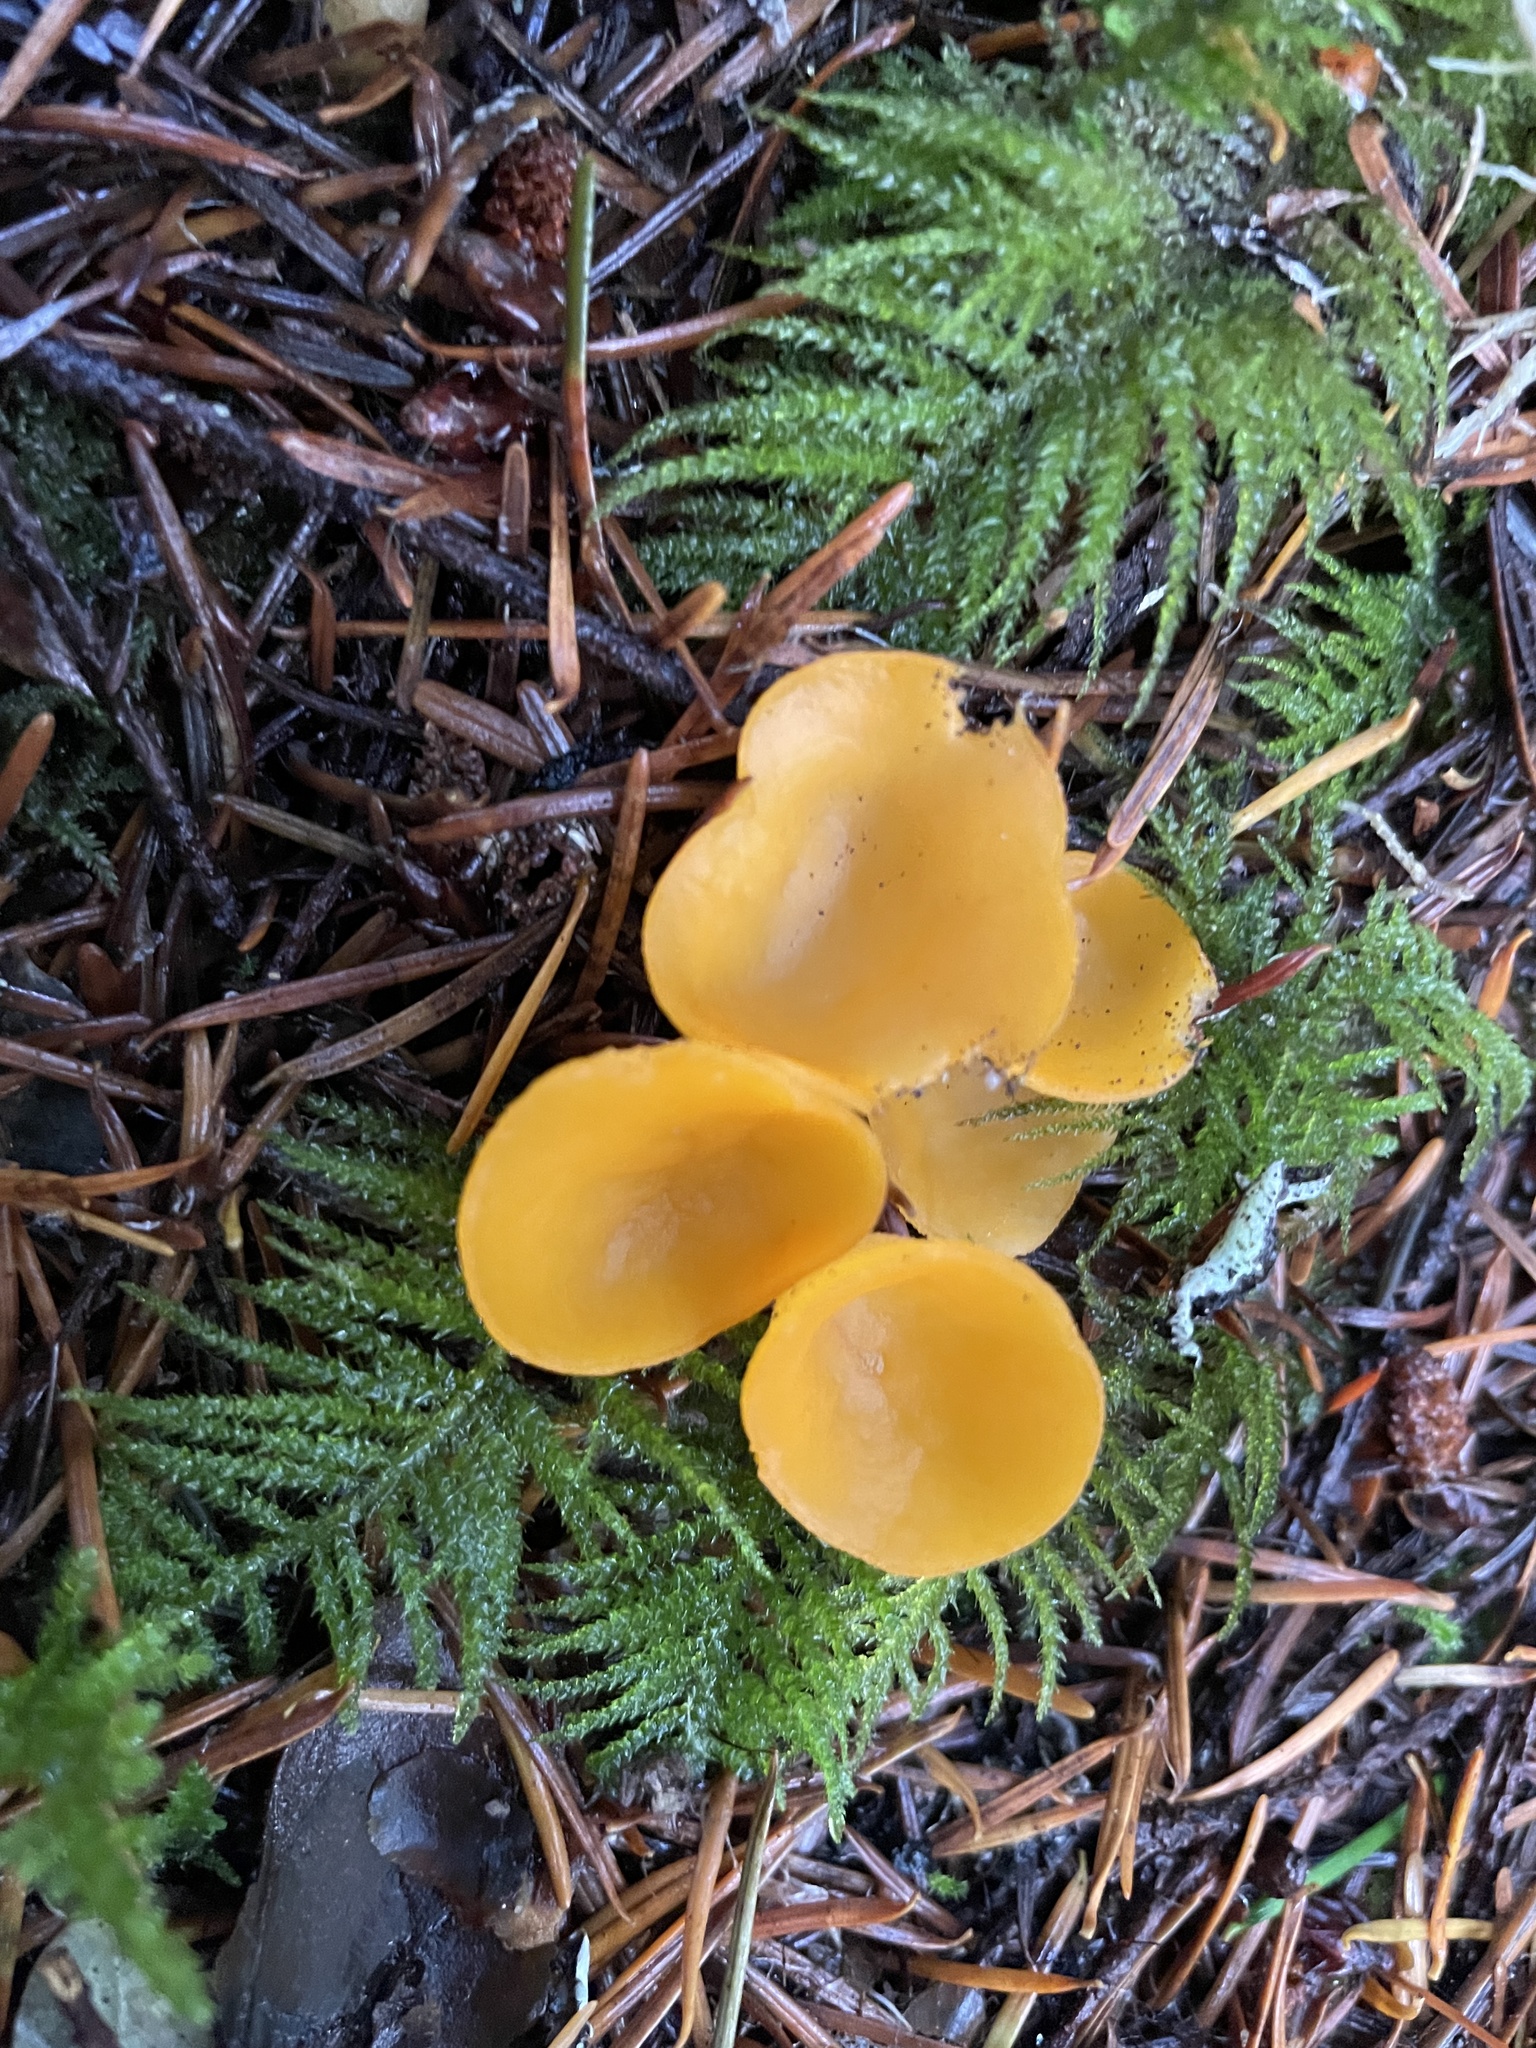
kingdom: Fungi
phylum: Ascomycota
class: Pezizomycetes
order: Pezizales
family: Pyronemataceae
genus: Sowerbyella
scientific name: Sowerbyella rhenana
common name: Stalked orange peel fungus
